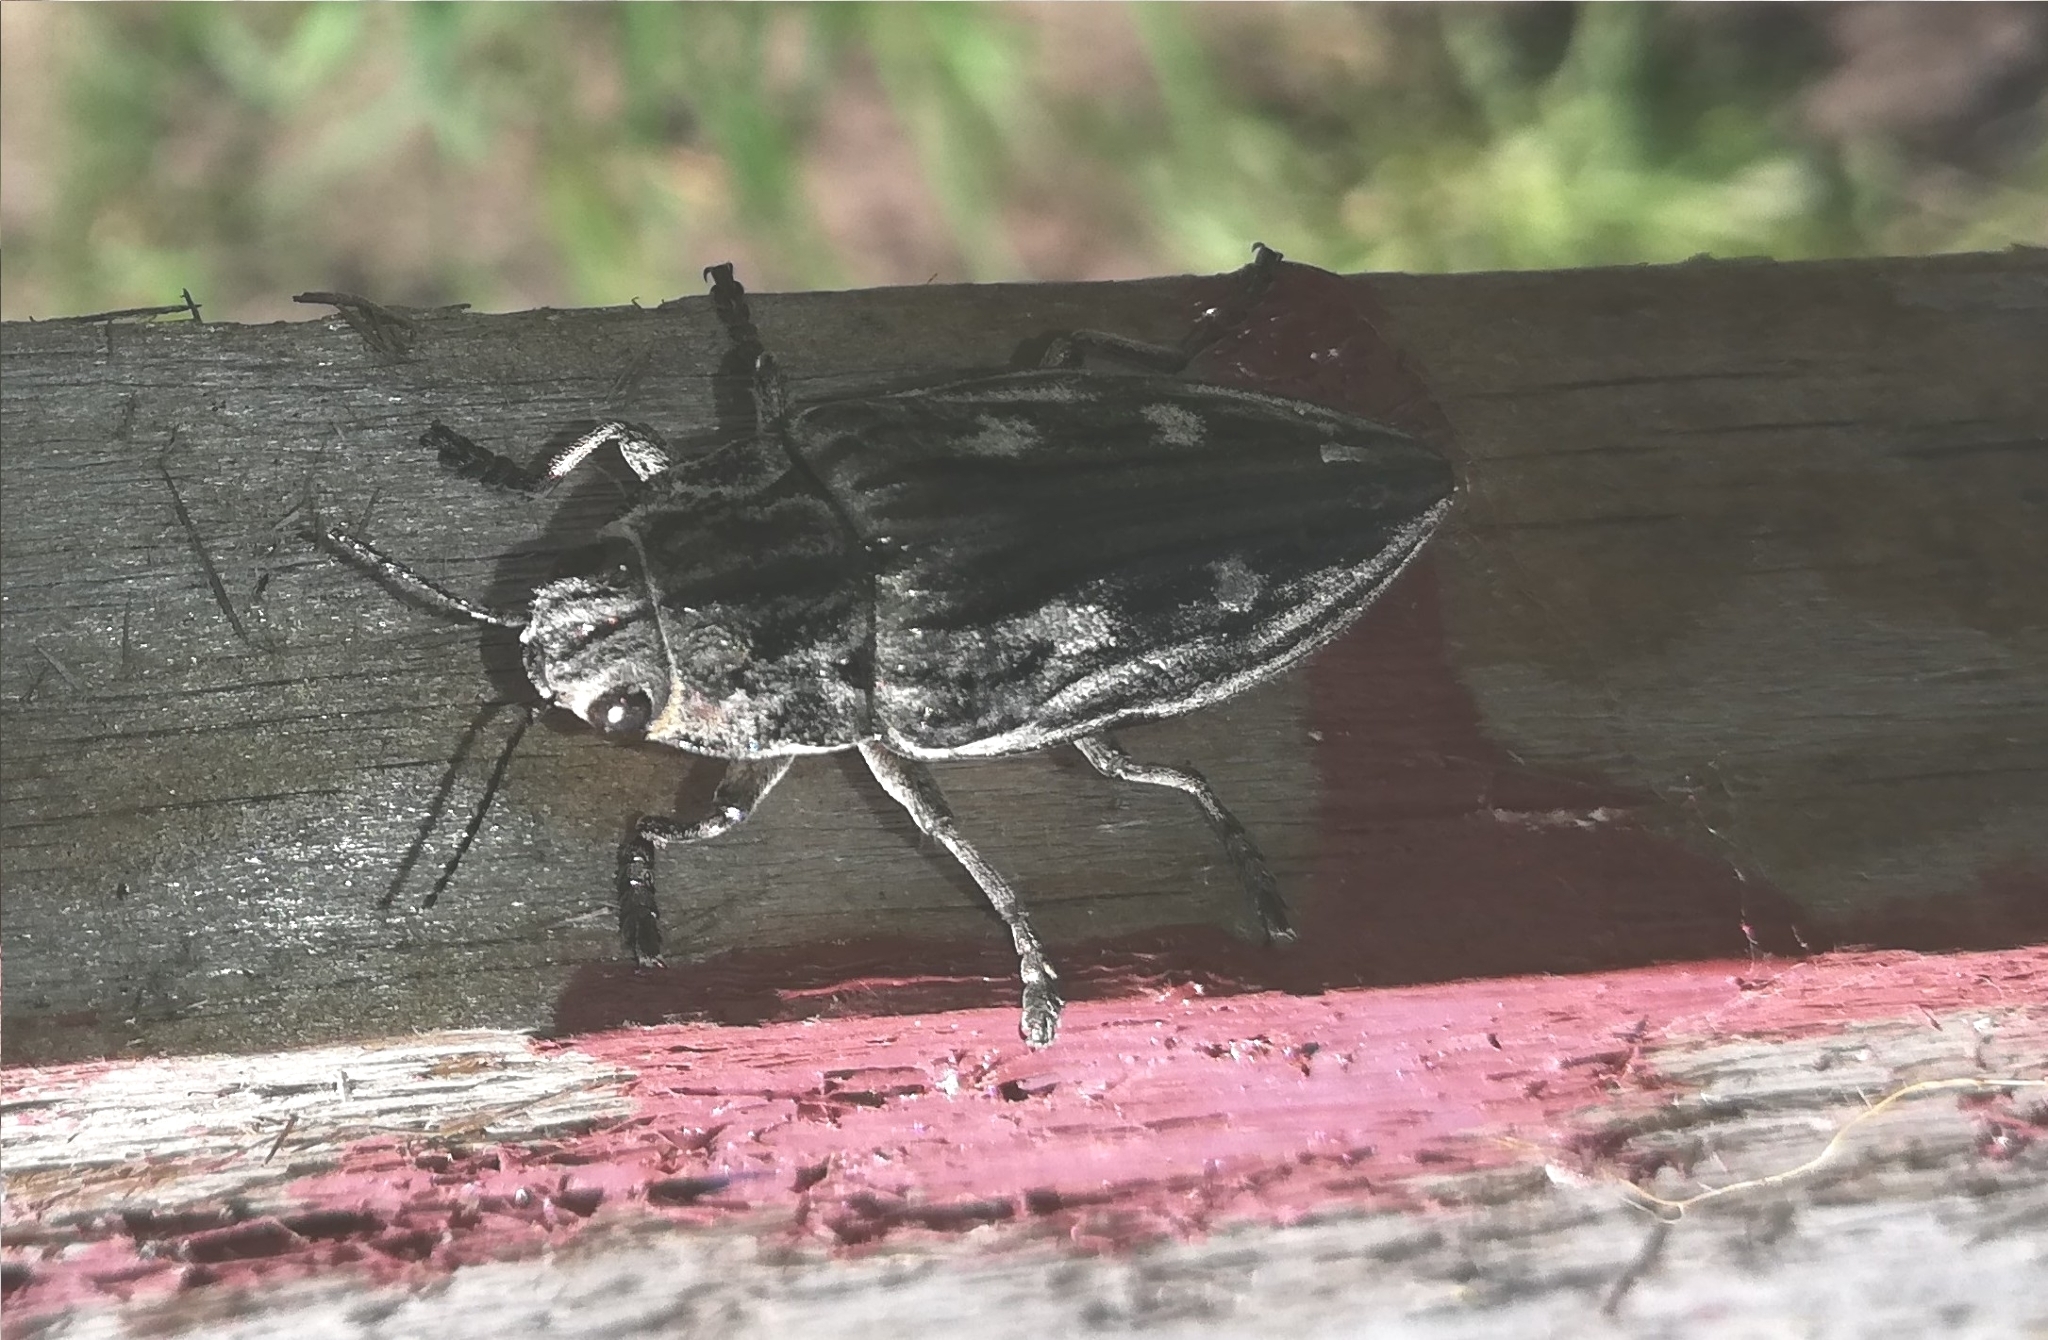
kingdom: Animalia
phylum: Arthropoda
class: Insecta
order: Coleoptera
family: Buprestidae
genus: Chalcophora
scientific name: Chalcophora mariana
